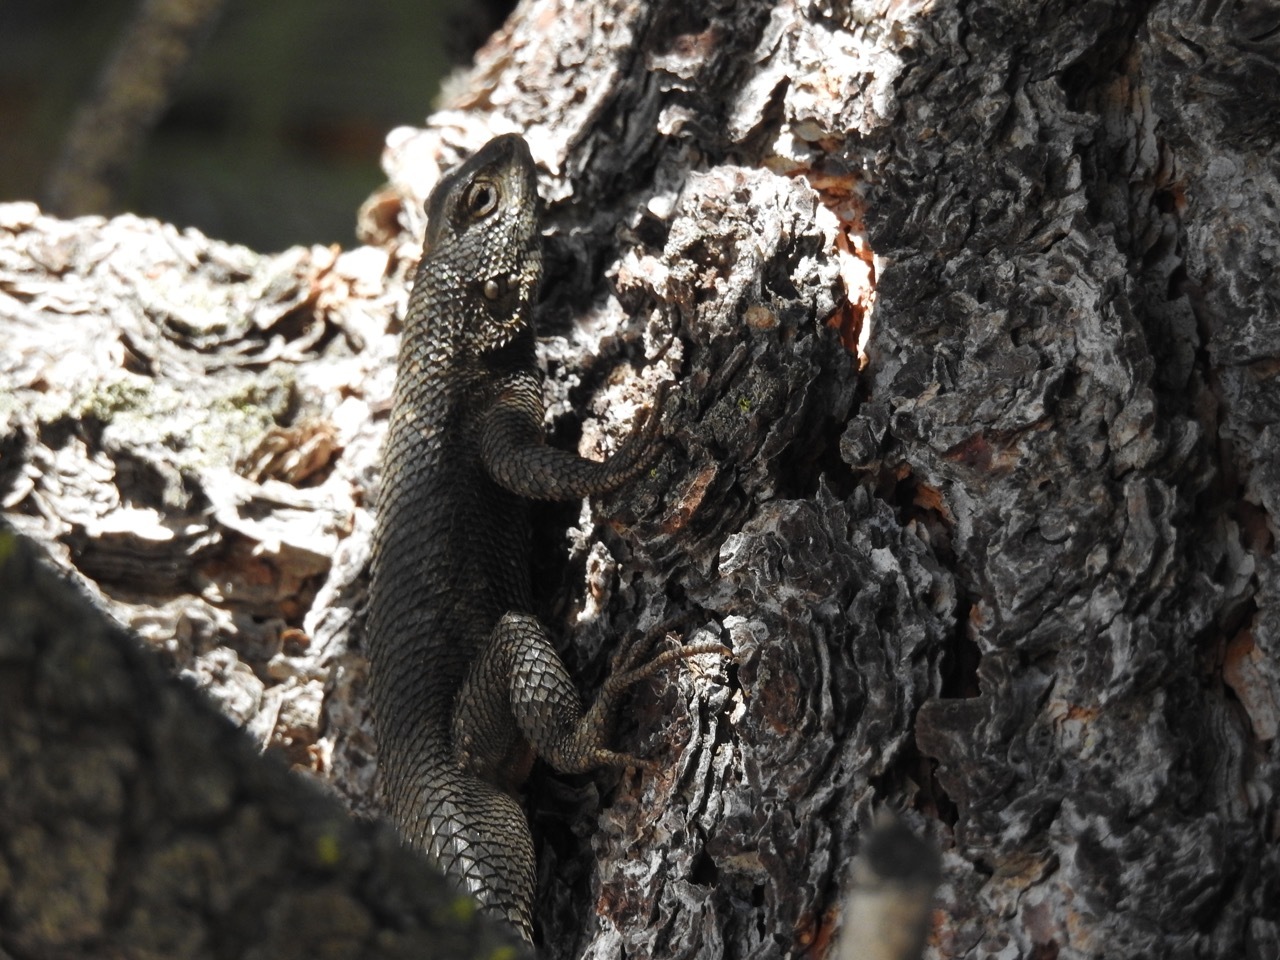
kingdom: Animalia
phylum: Chordata
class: Squamata
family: Phrynosomatidae
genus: Sceloporus
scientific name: Sceloporus occidentalis
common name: Western fence lizard
